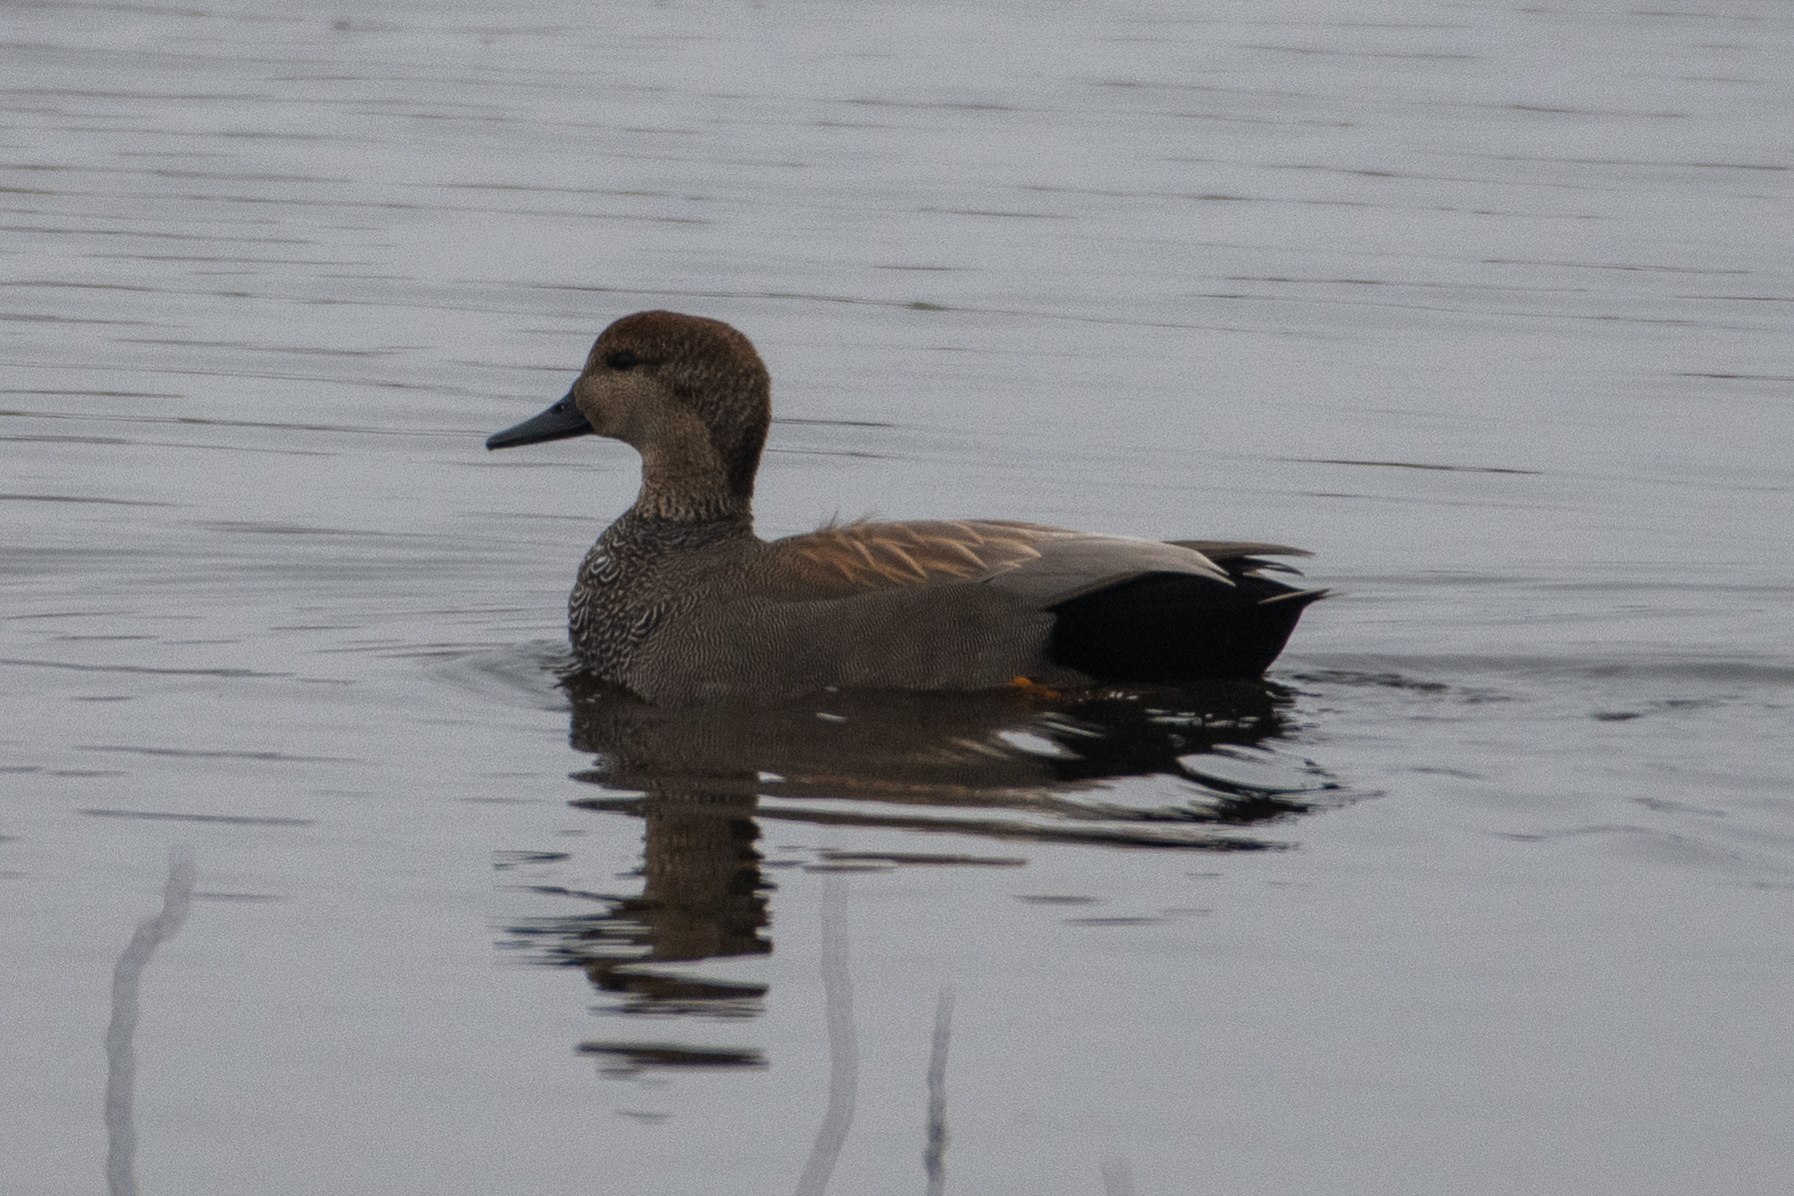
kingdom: Animalia
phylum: Chordata
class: Aves
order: Anseriformes
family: Anatidae
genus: Mareca
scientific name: Mareca strepera
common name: Gadwall
